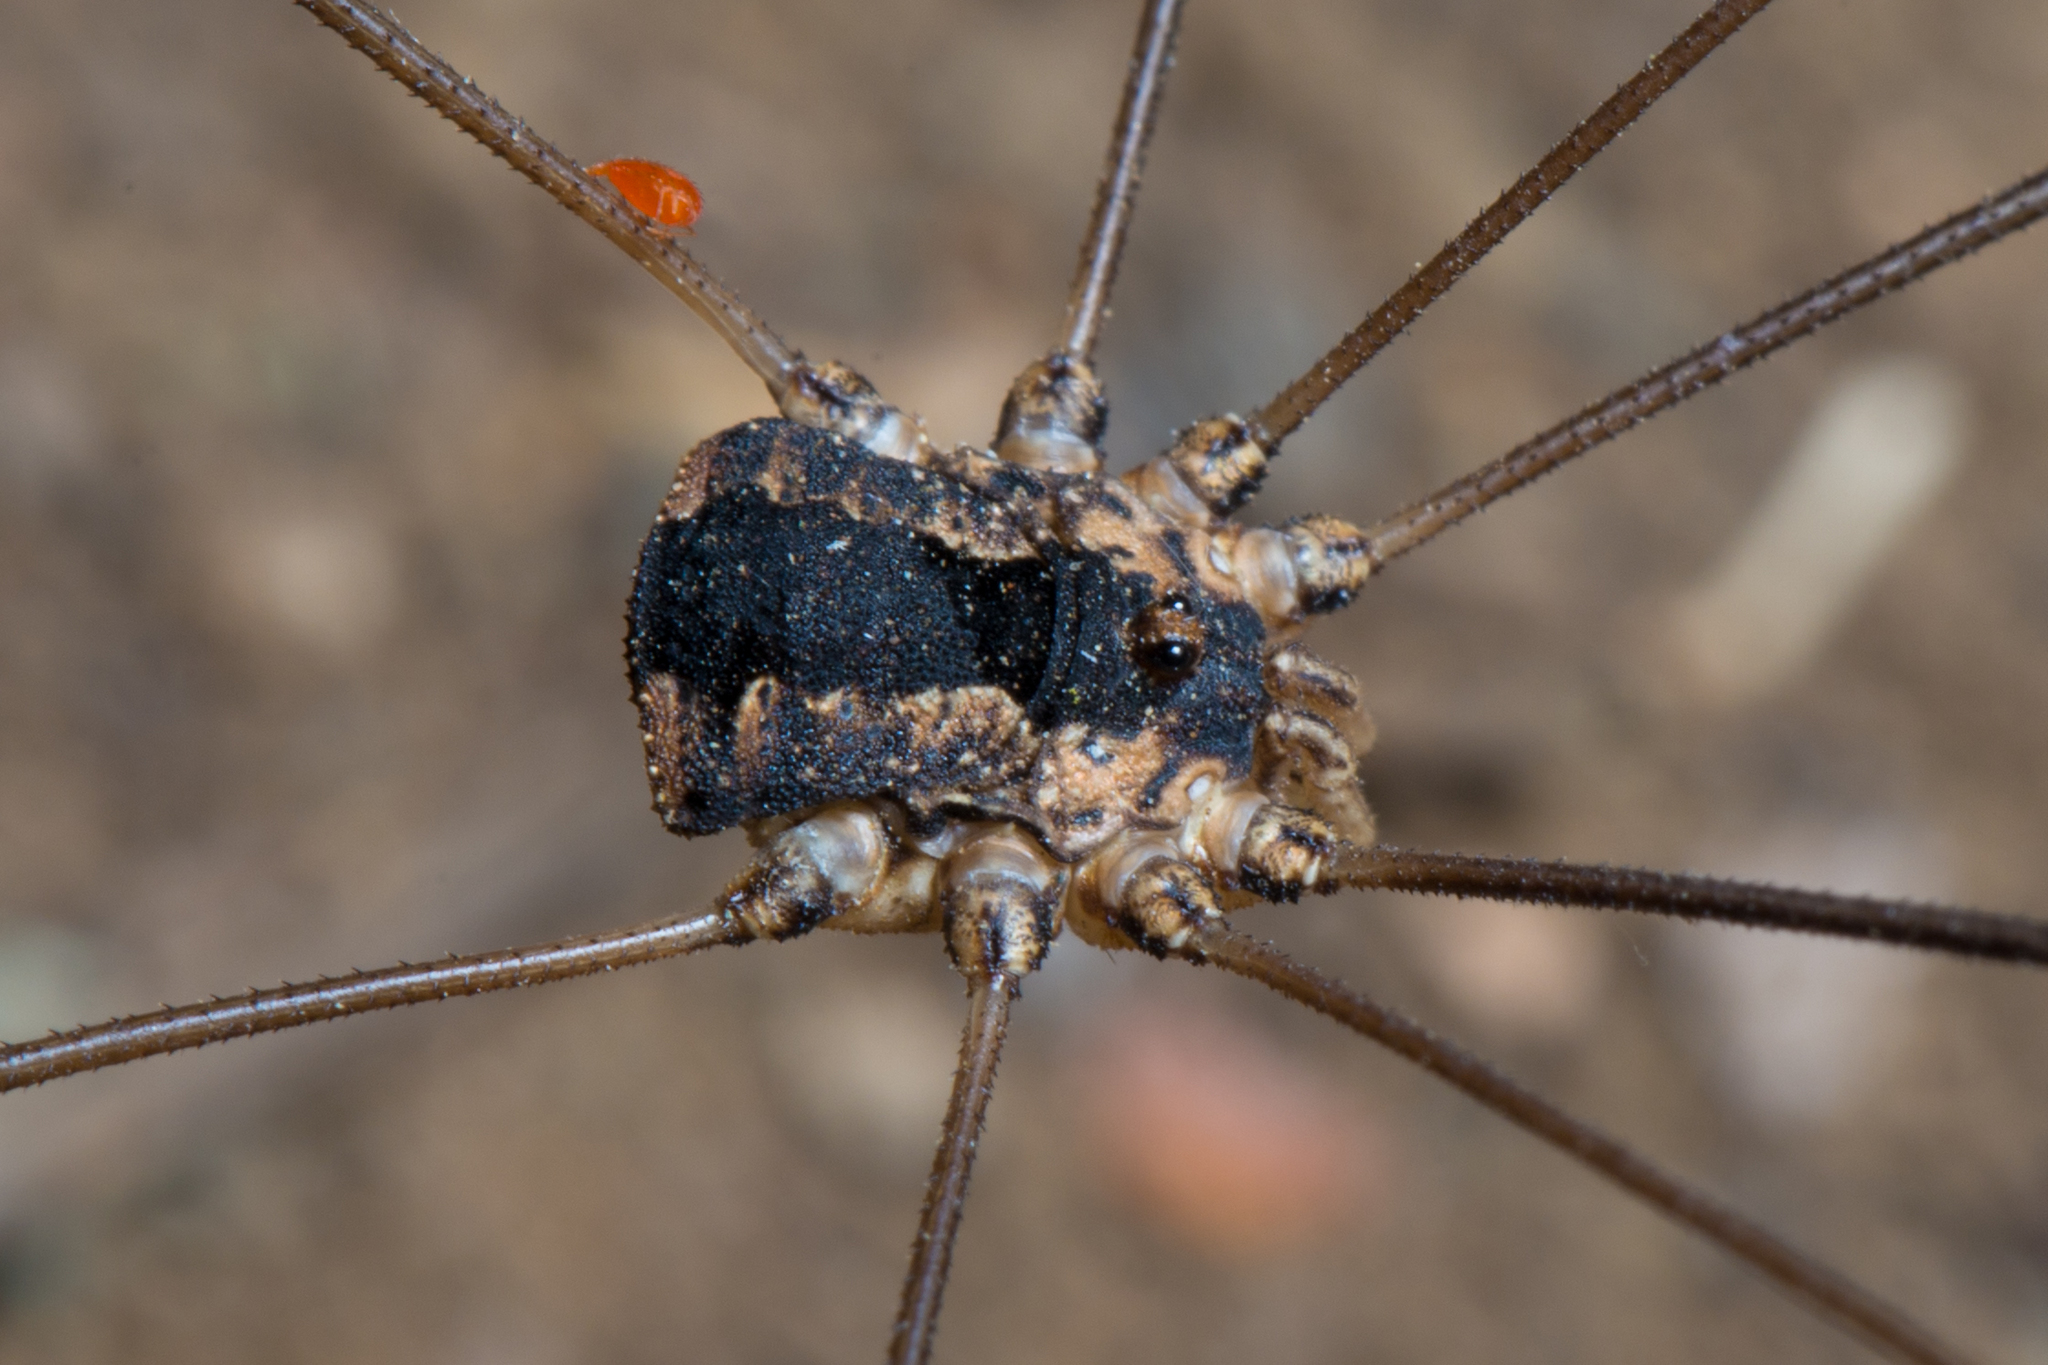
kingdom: Animalia
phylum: Arthropoda
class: Arachnida
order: Opiliones
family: Sclerosomatidae
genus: Leuronychus
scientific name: Leuronychus pacificus
